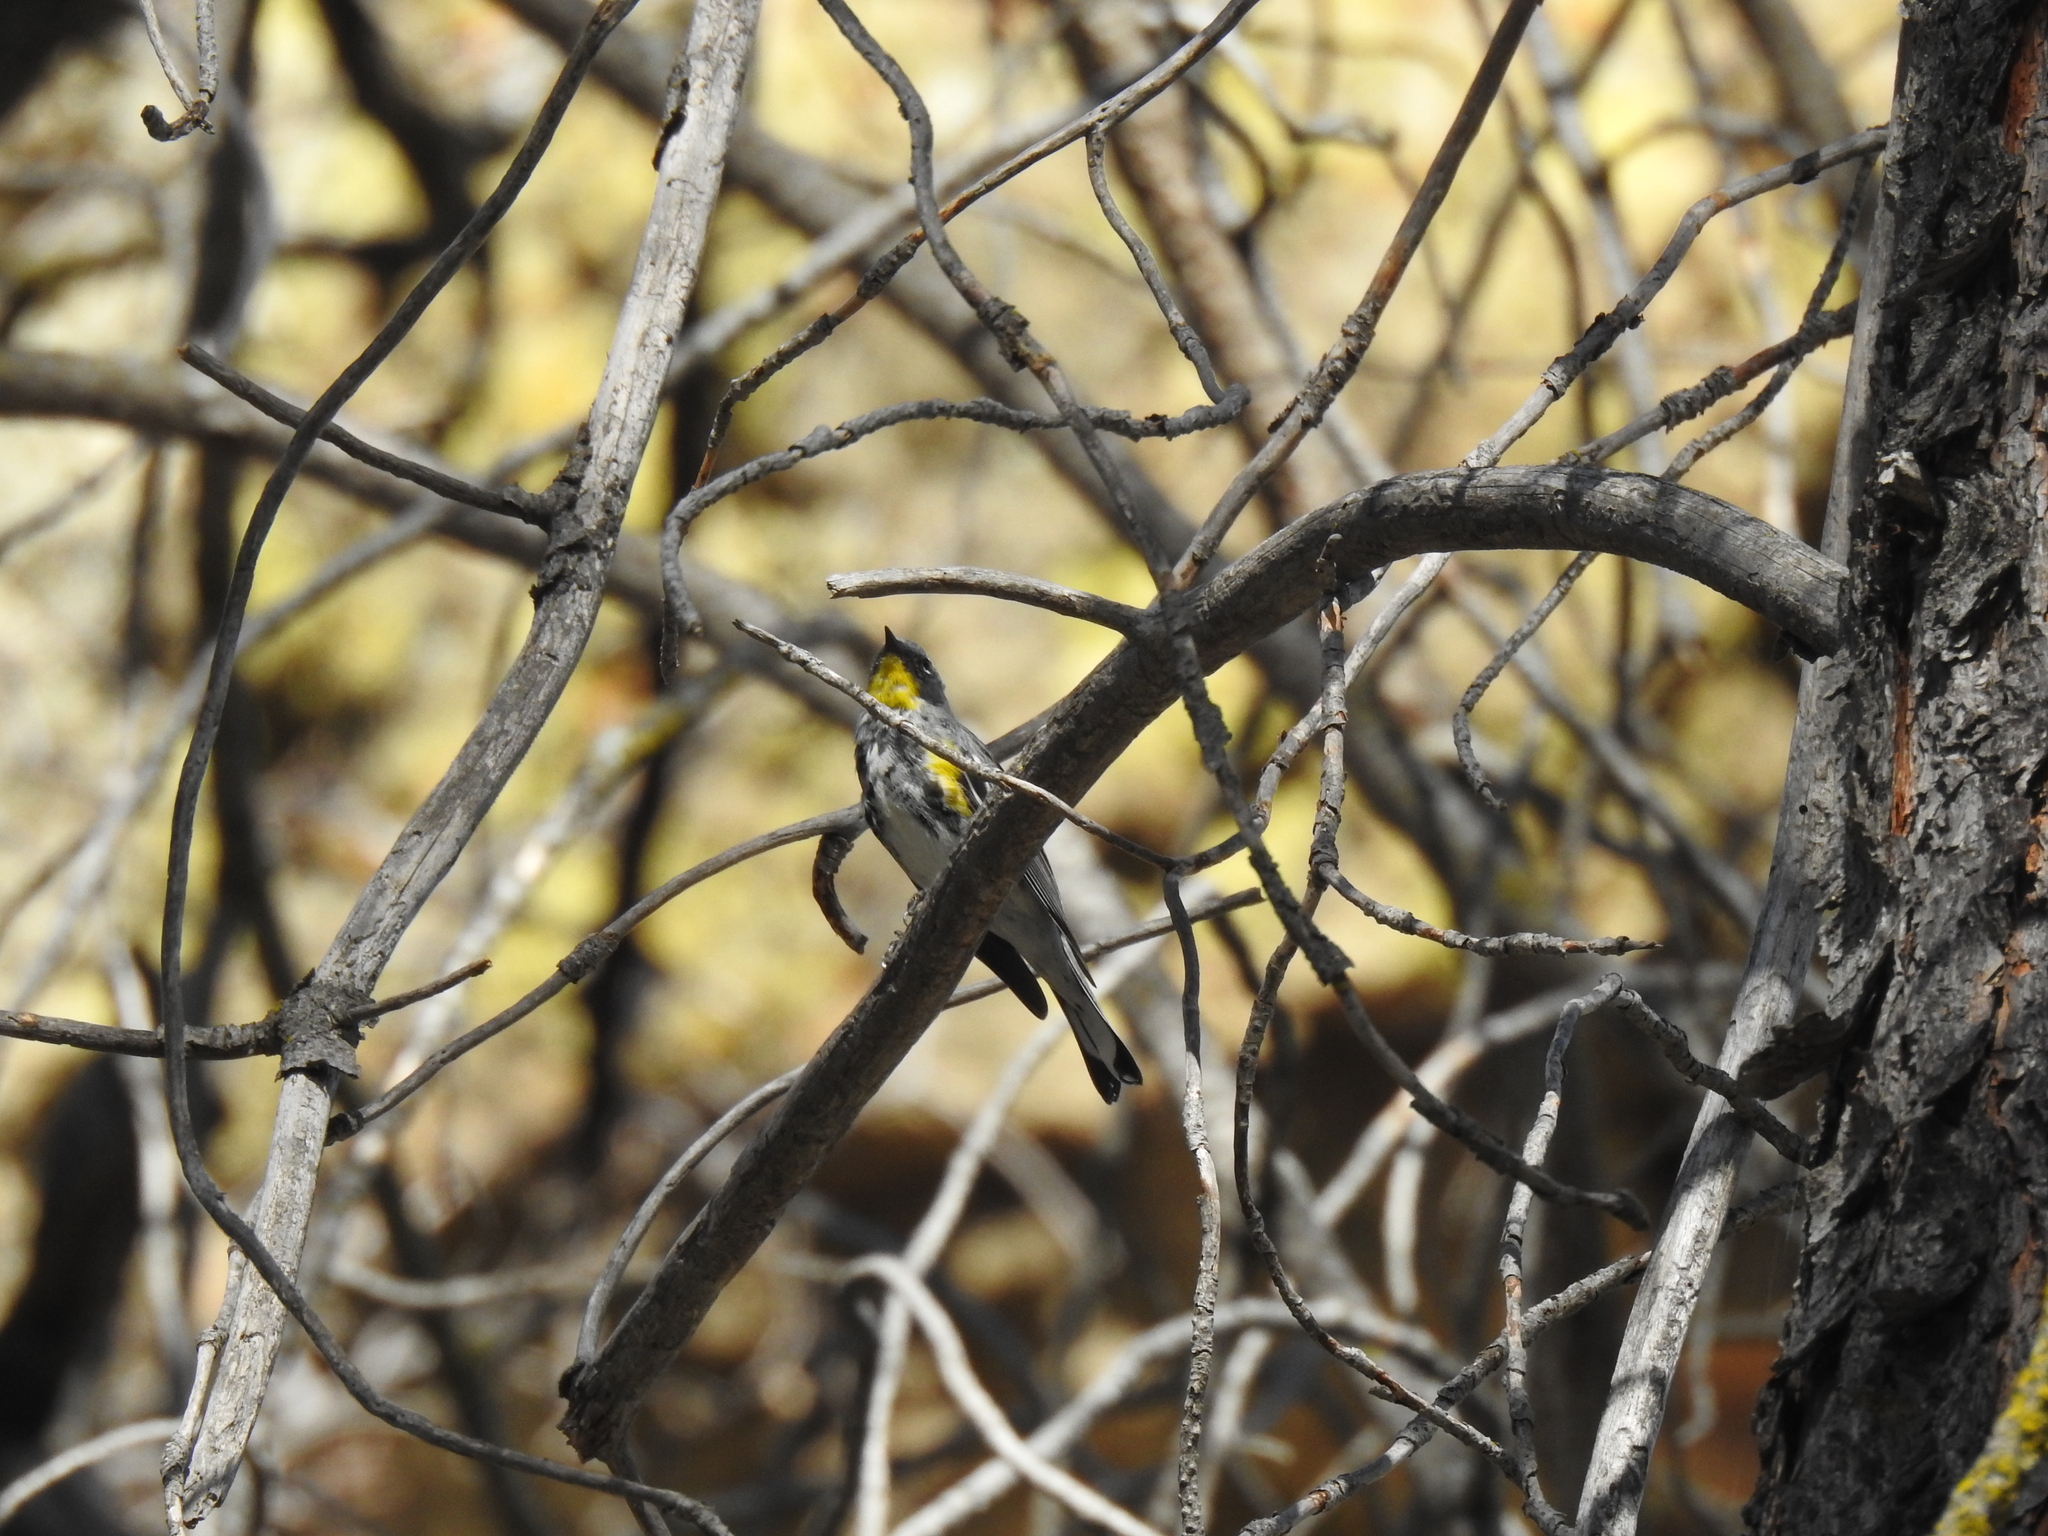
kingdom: Animalia
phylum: Chordata
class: Aves
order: Passeriformes
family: Parulidae
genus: Setophaga
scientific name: Setophaga coronata
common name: Myrtle warbler
